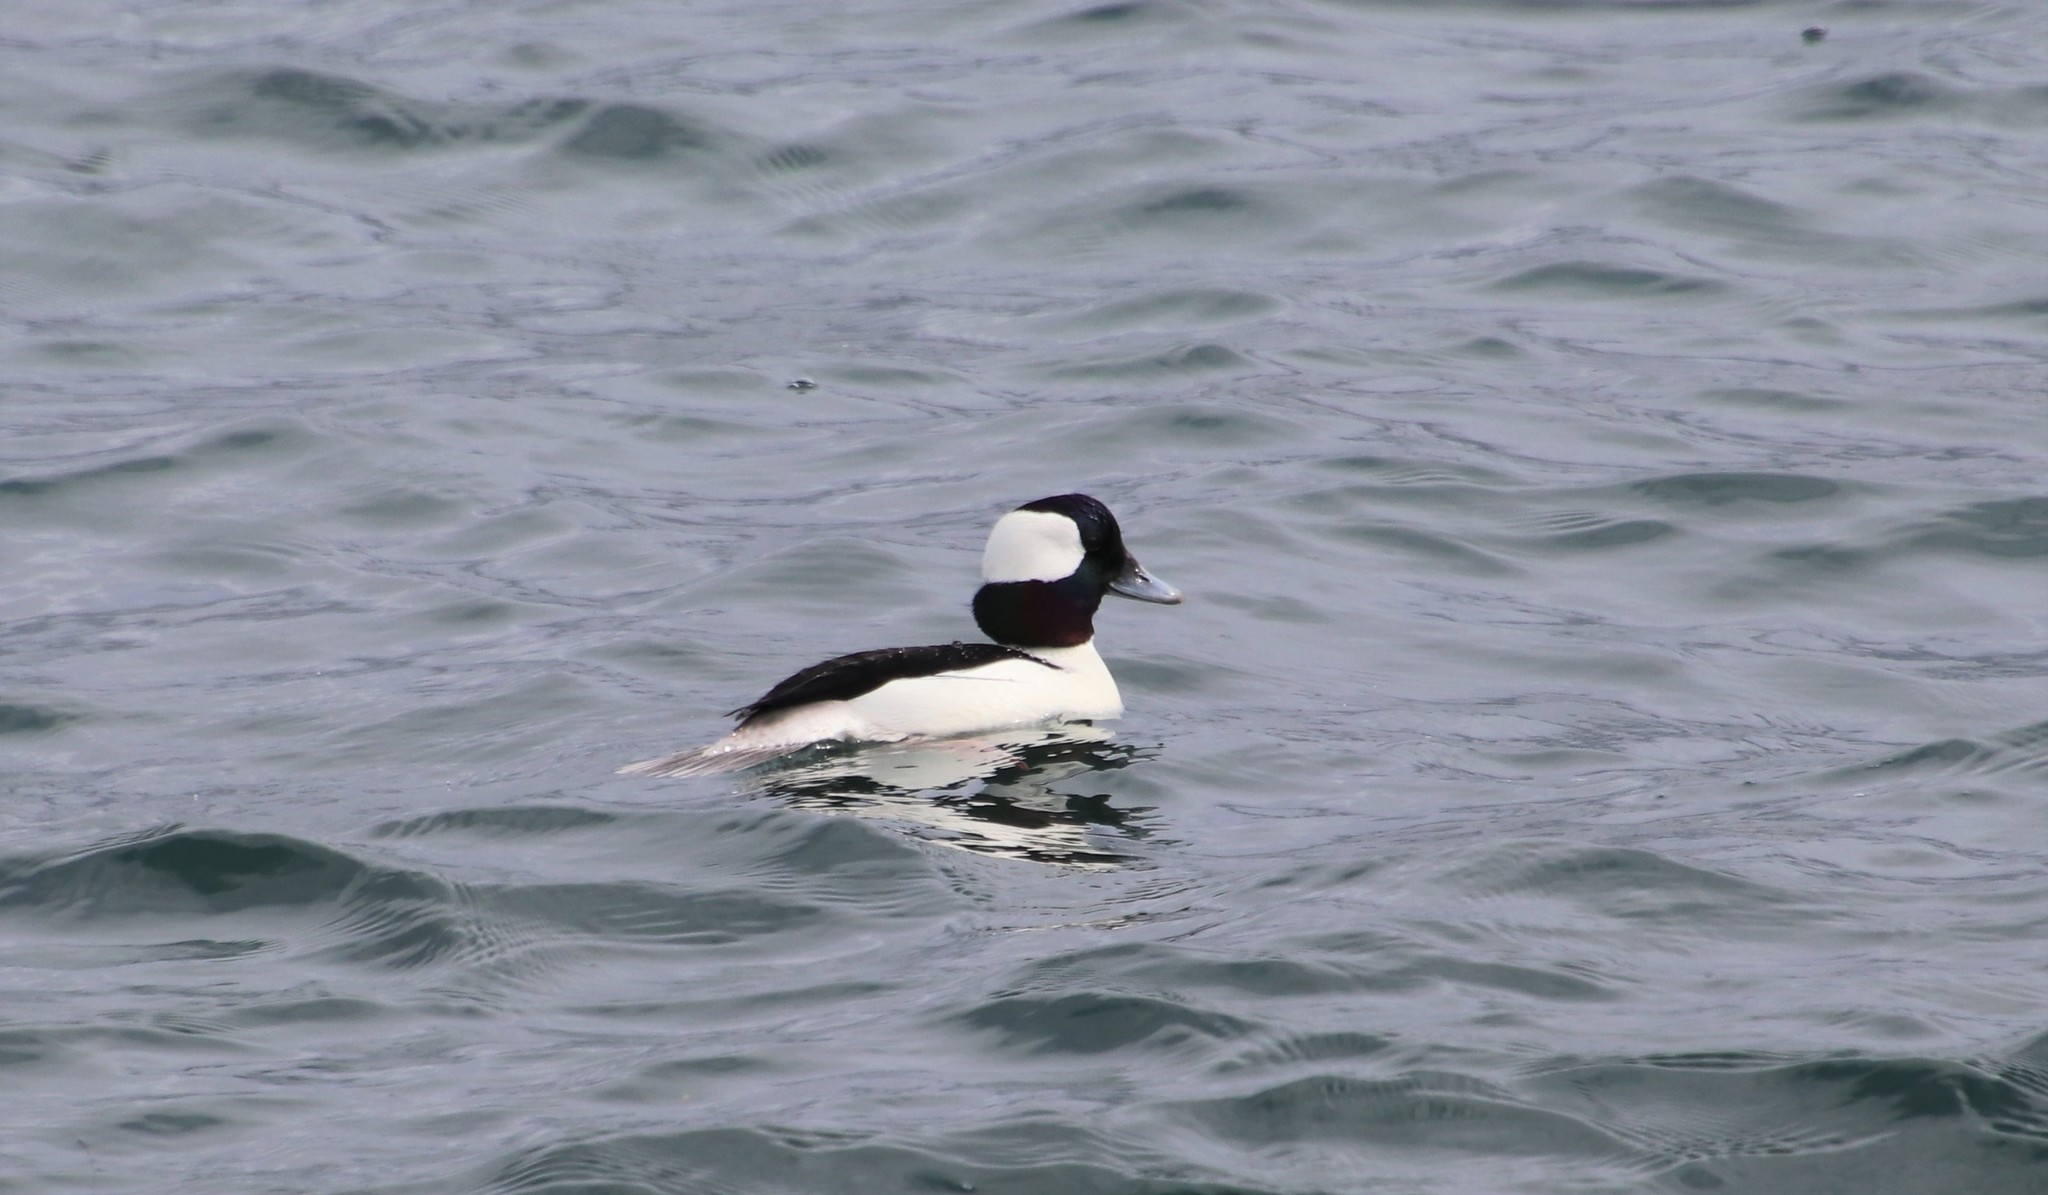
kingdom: Animalia
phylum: Chordata
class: Aves
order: Anseriformes
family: Anatidae
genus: Bucephala
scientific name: Bucephala albeola
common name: Bufflehead
